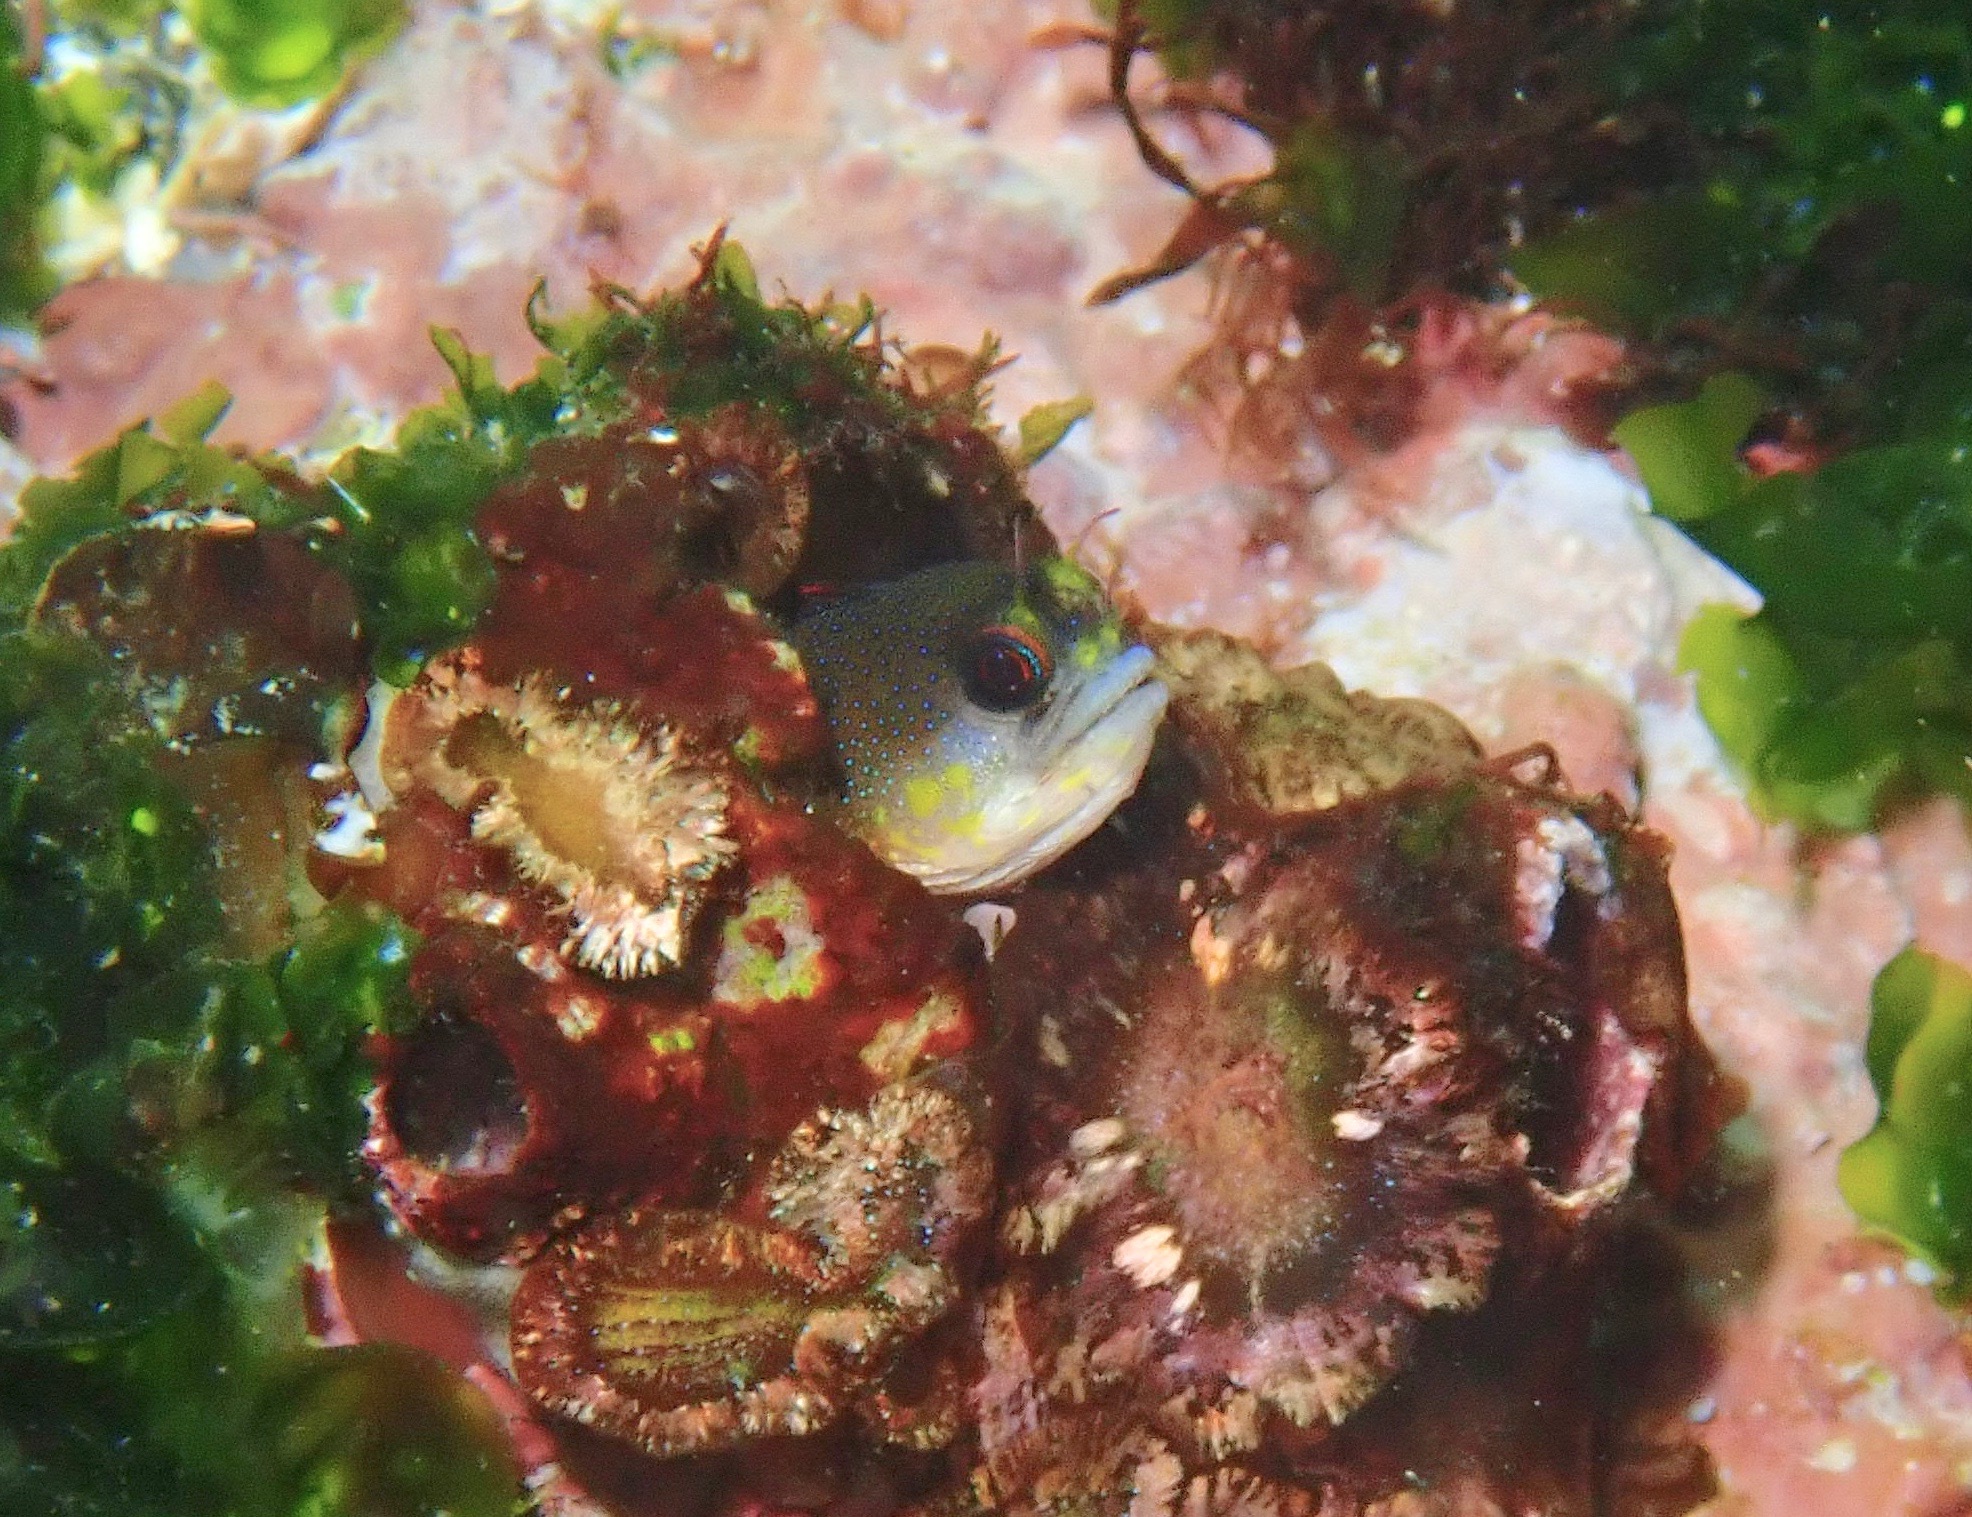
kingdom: Animalia
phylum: Chordata
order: Perciformes
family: Chaenopsidae
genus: Acanthemblemaria
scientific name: Acanthemblemaria castroi
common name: Galápagos barnacle blenny
